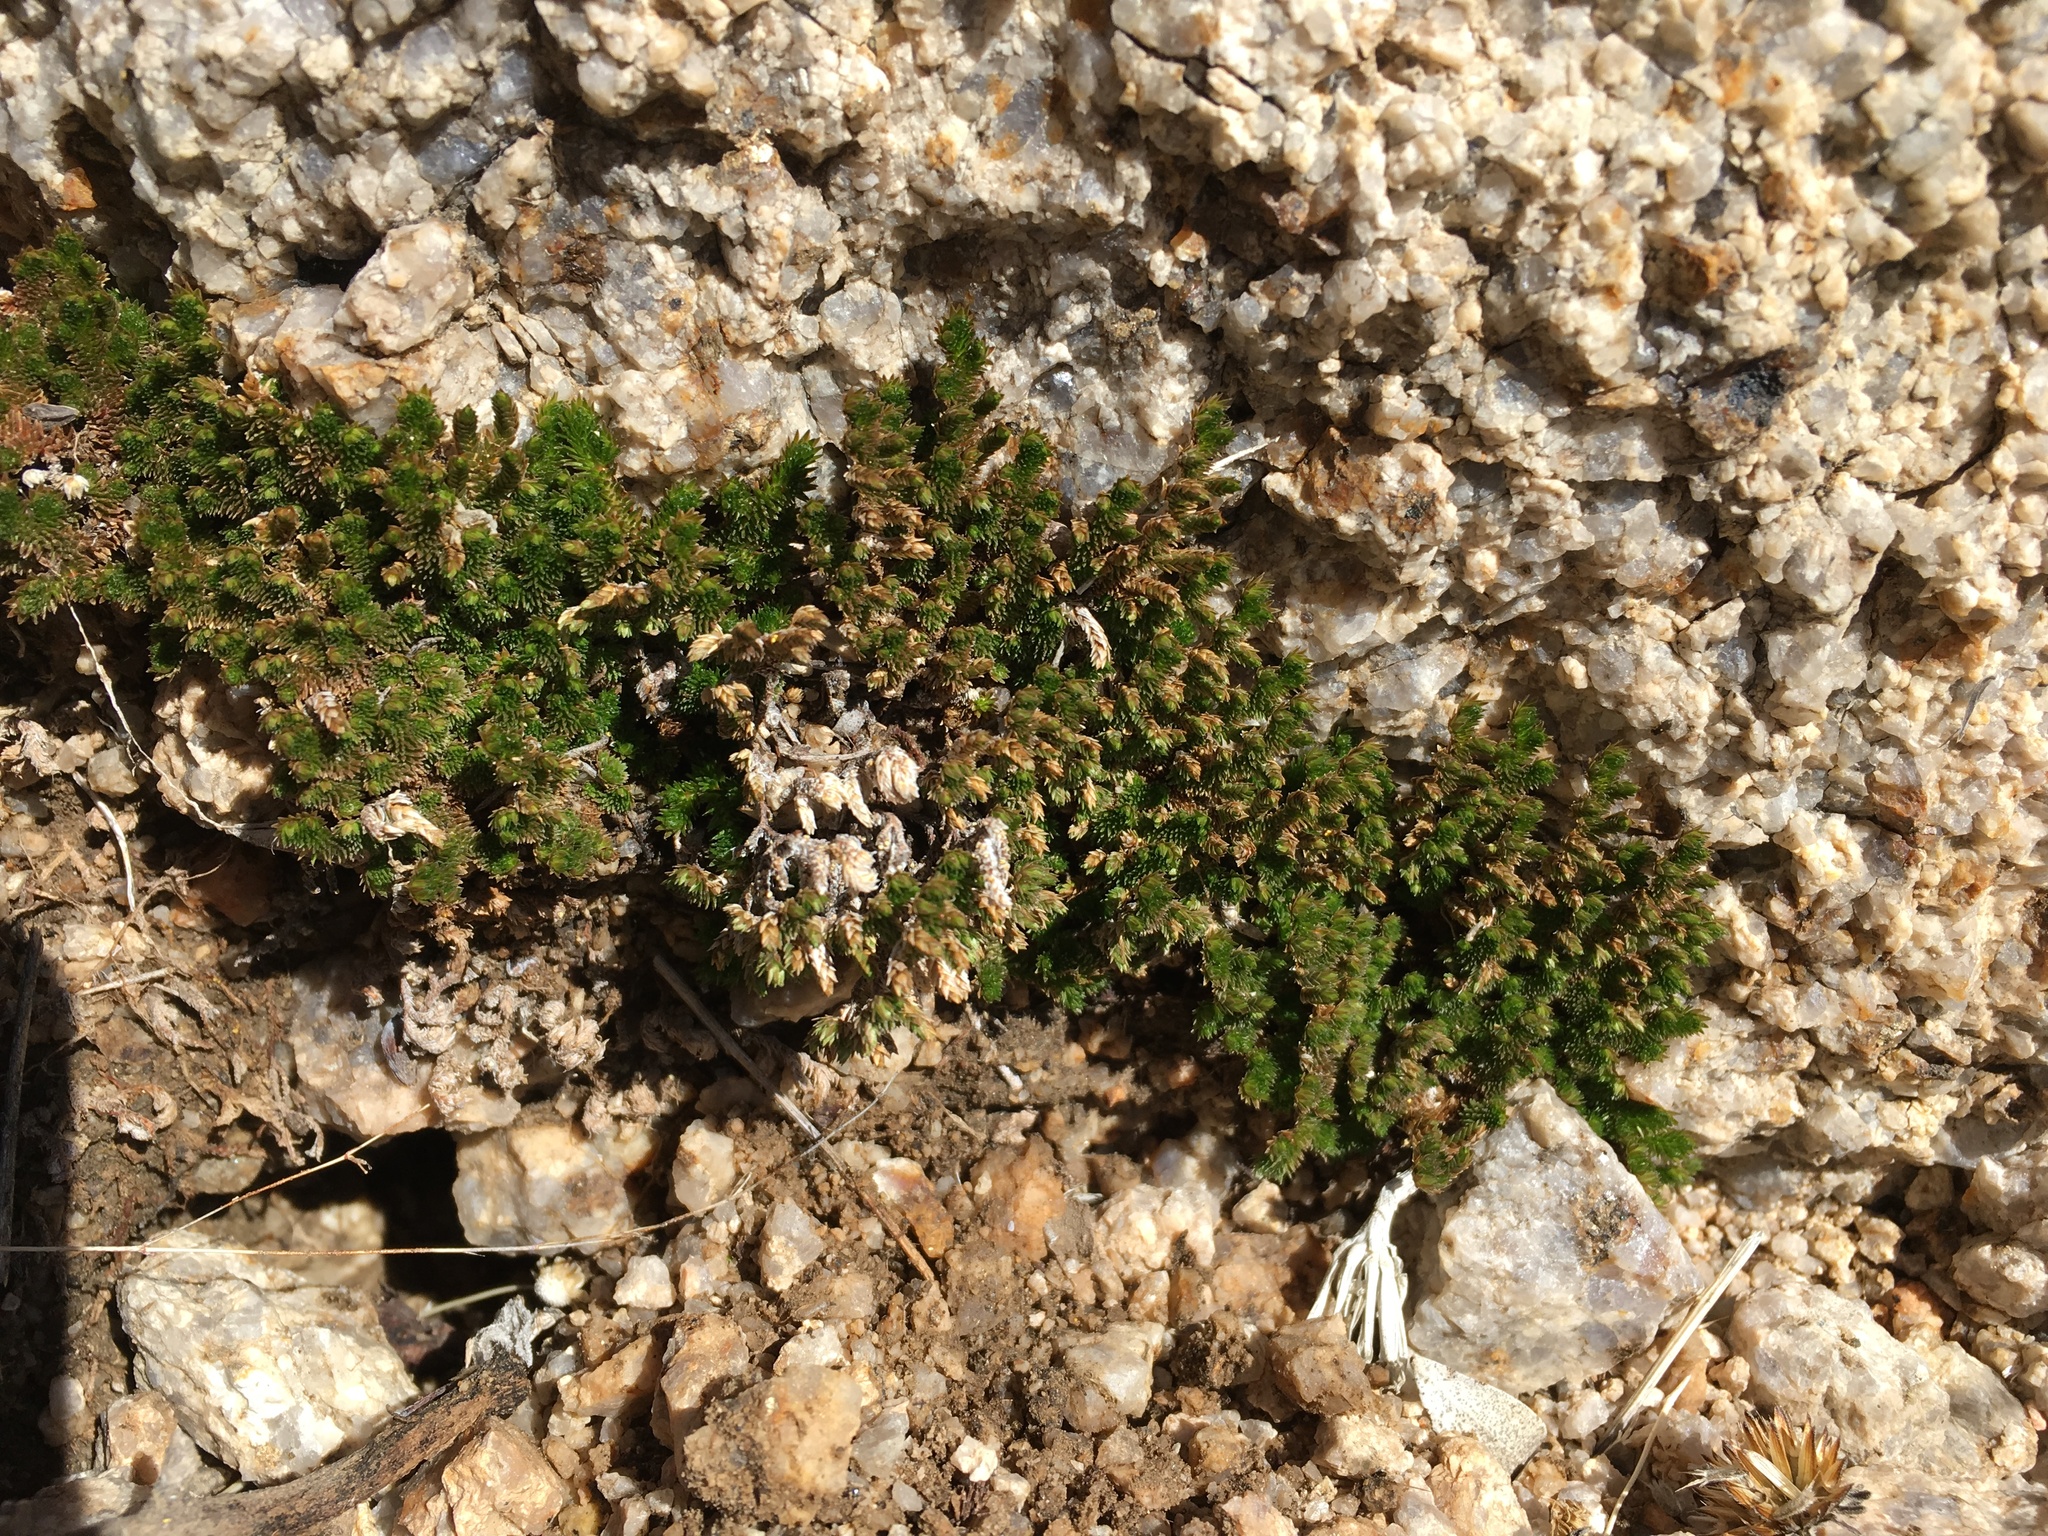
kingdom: Plantae
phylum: Tracheophyta
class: Lycopodiopsida
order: Selaginellales
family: Selaginellaceae
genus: Selaginella
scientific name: Selaginella eremophila
